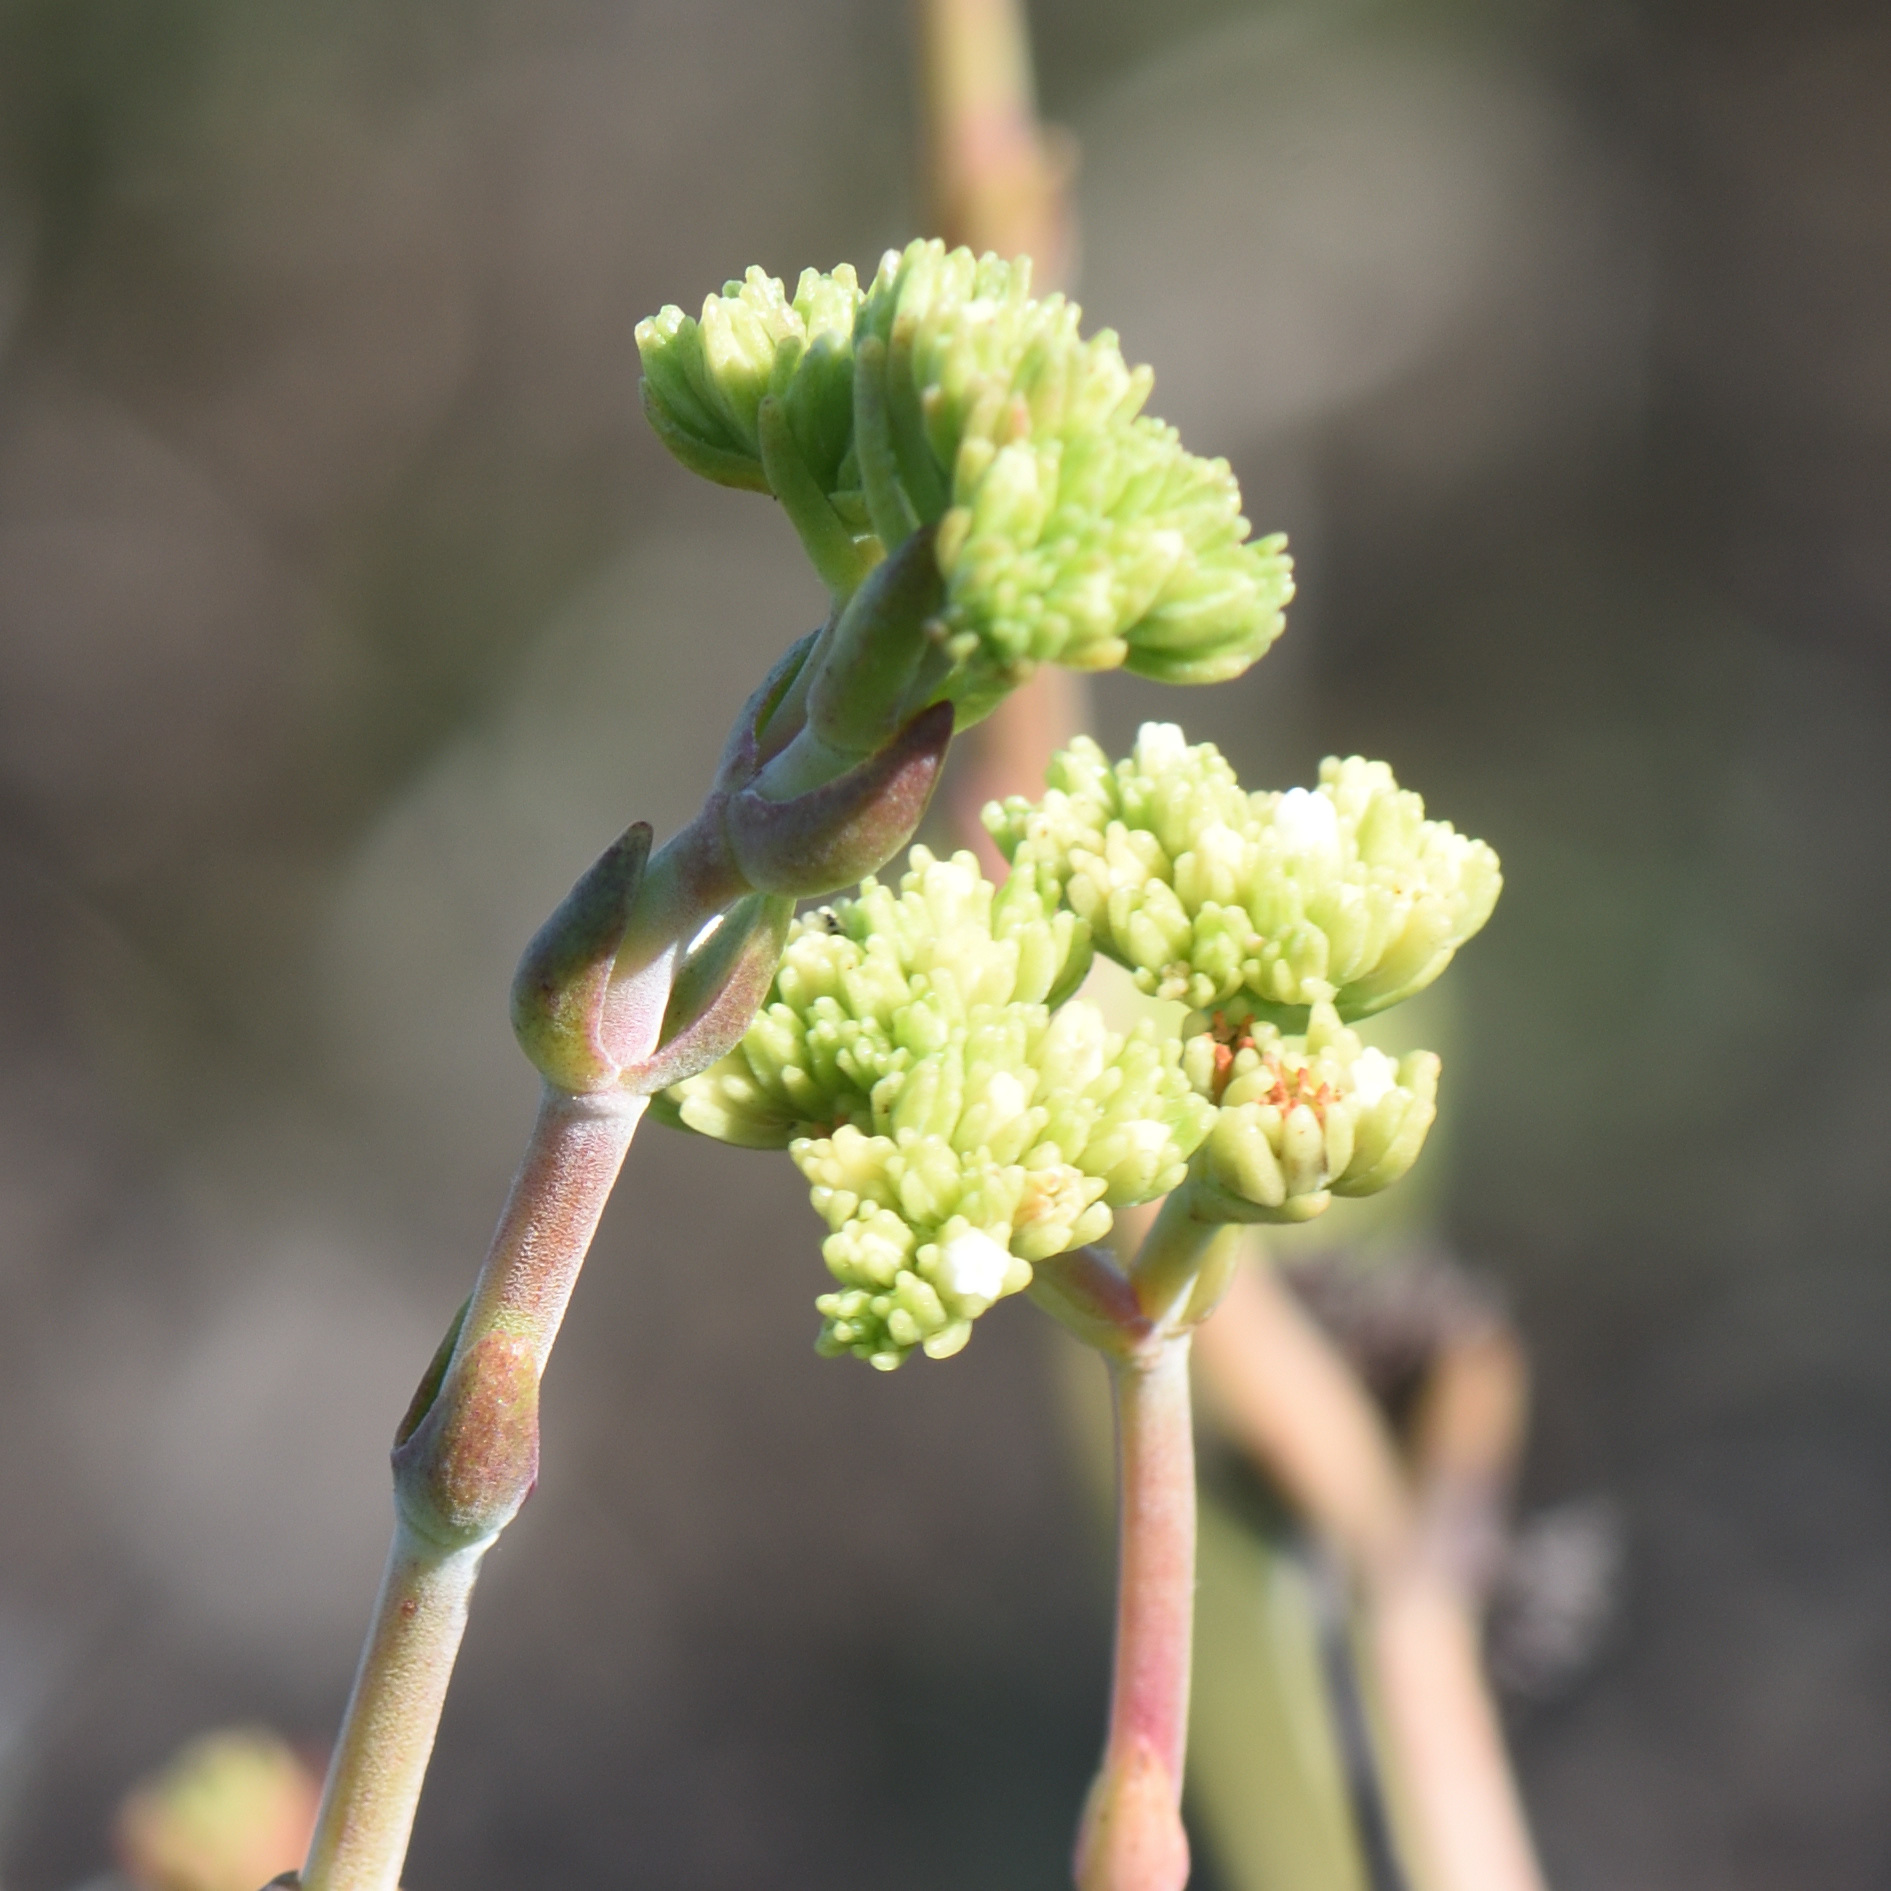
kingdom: Plantae
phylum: Tracheophyta
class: Magnoliopsida
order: Saxifragales
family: Crassulaceae
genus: Crassula
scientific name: Crassula mollis
